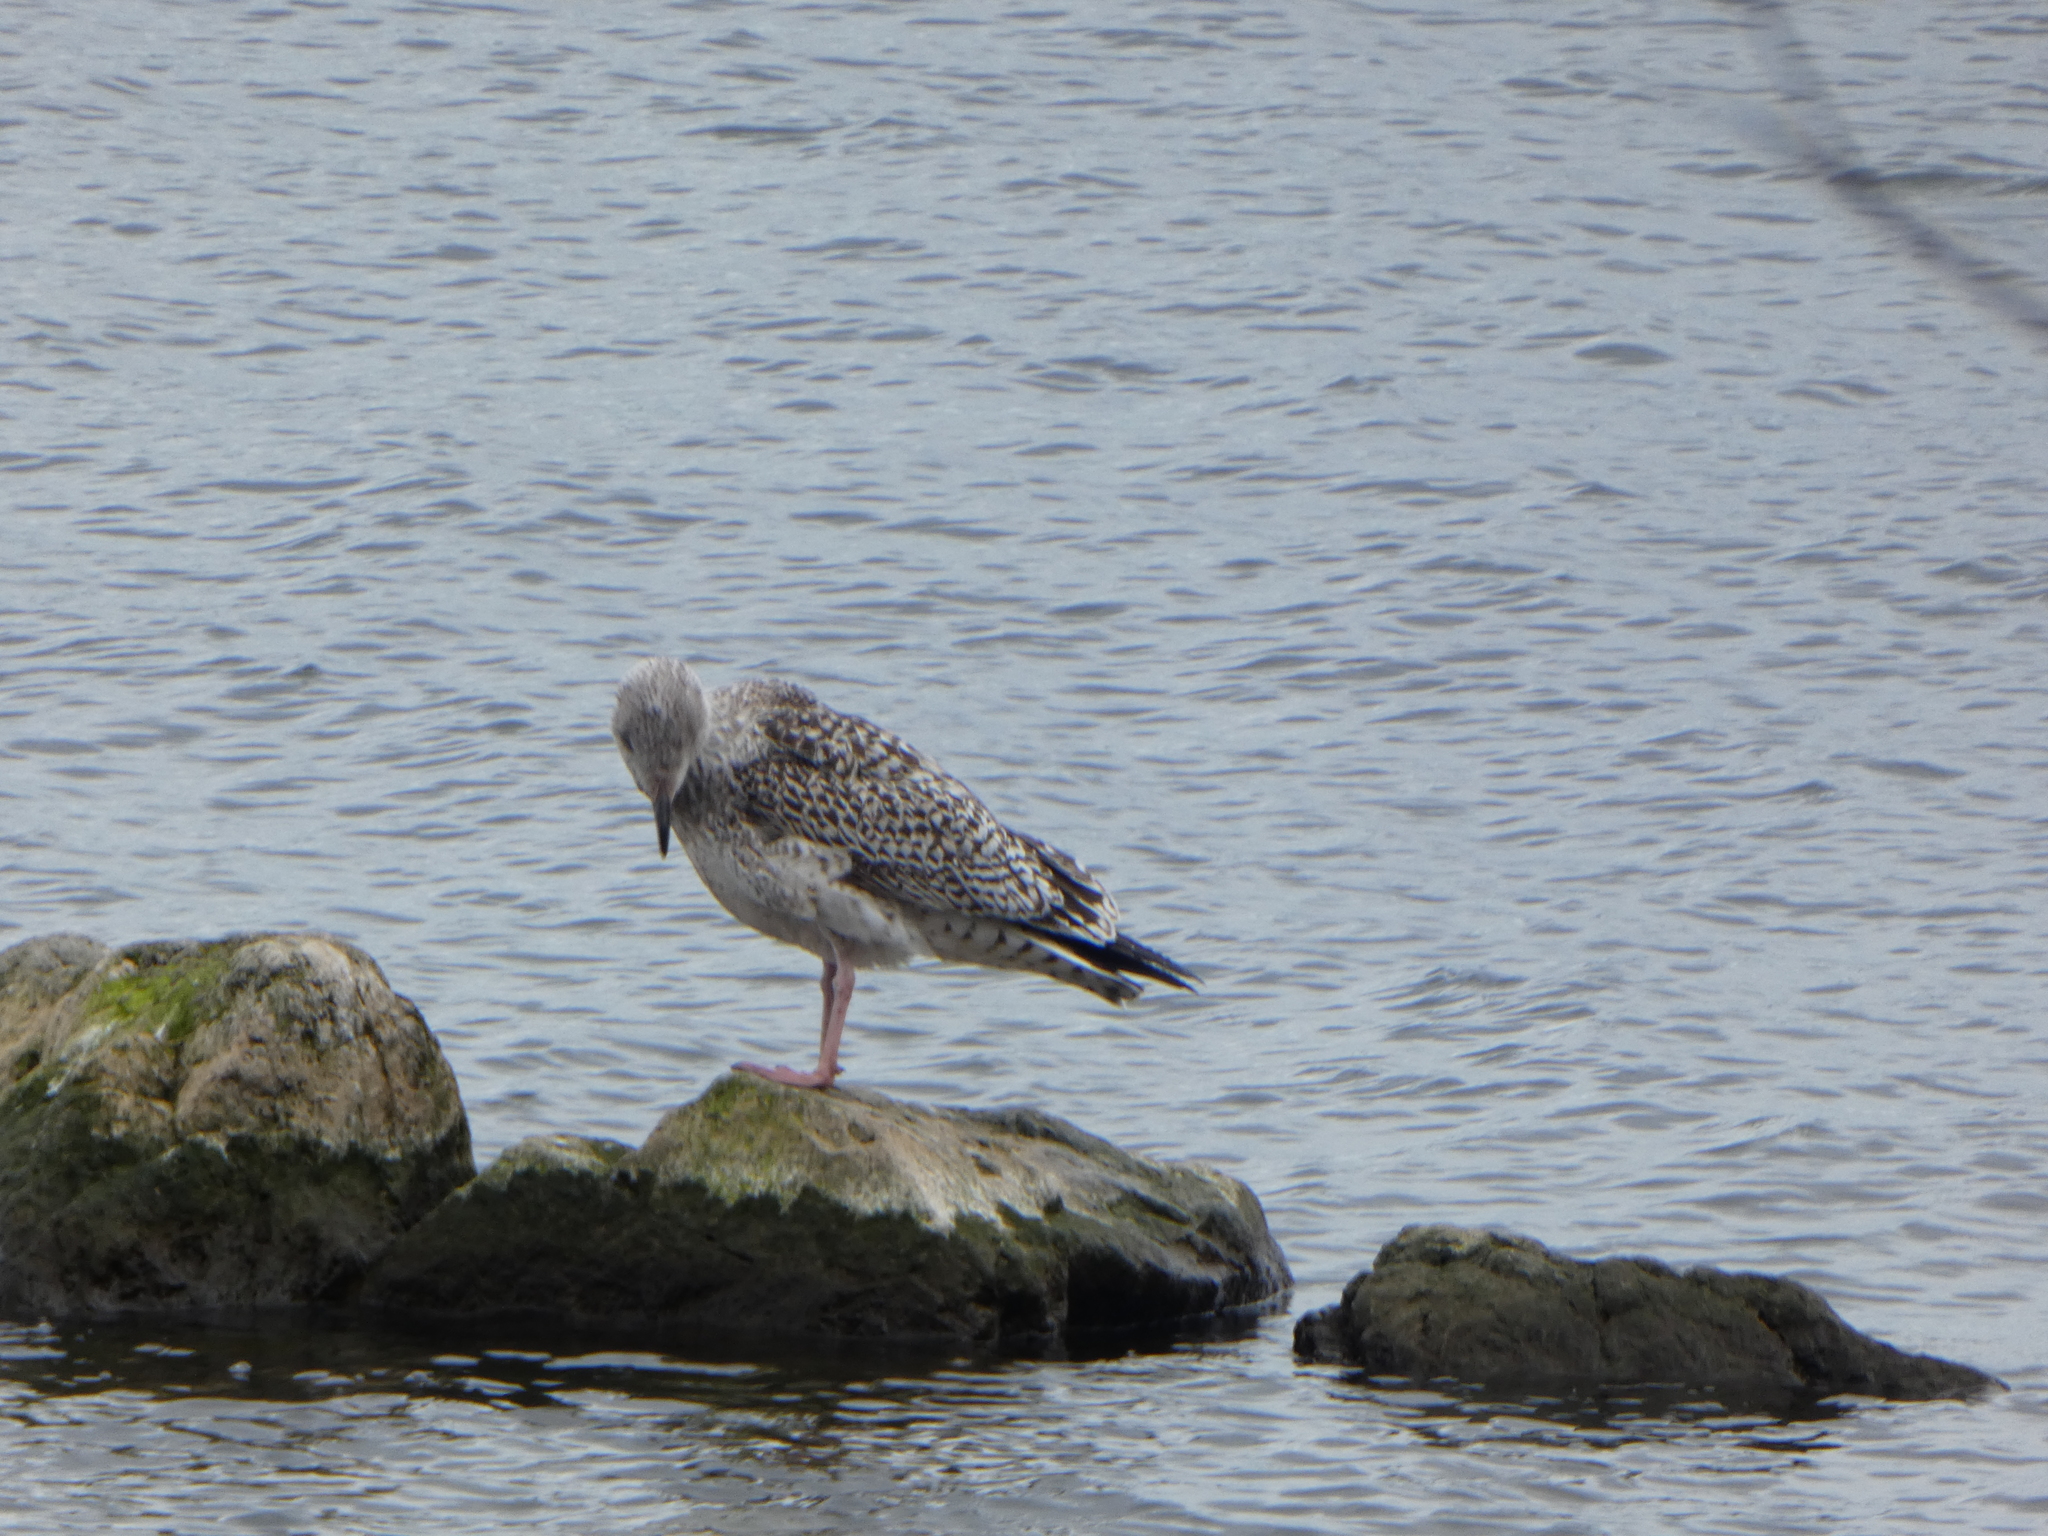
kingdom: Animalia
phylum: Chordata
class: Aves
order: Charadriiformes
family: Laridae
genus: Larus
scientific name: Larus marinus
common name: Great black-backed gull
